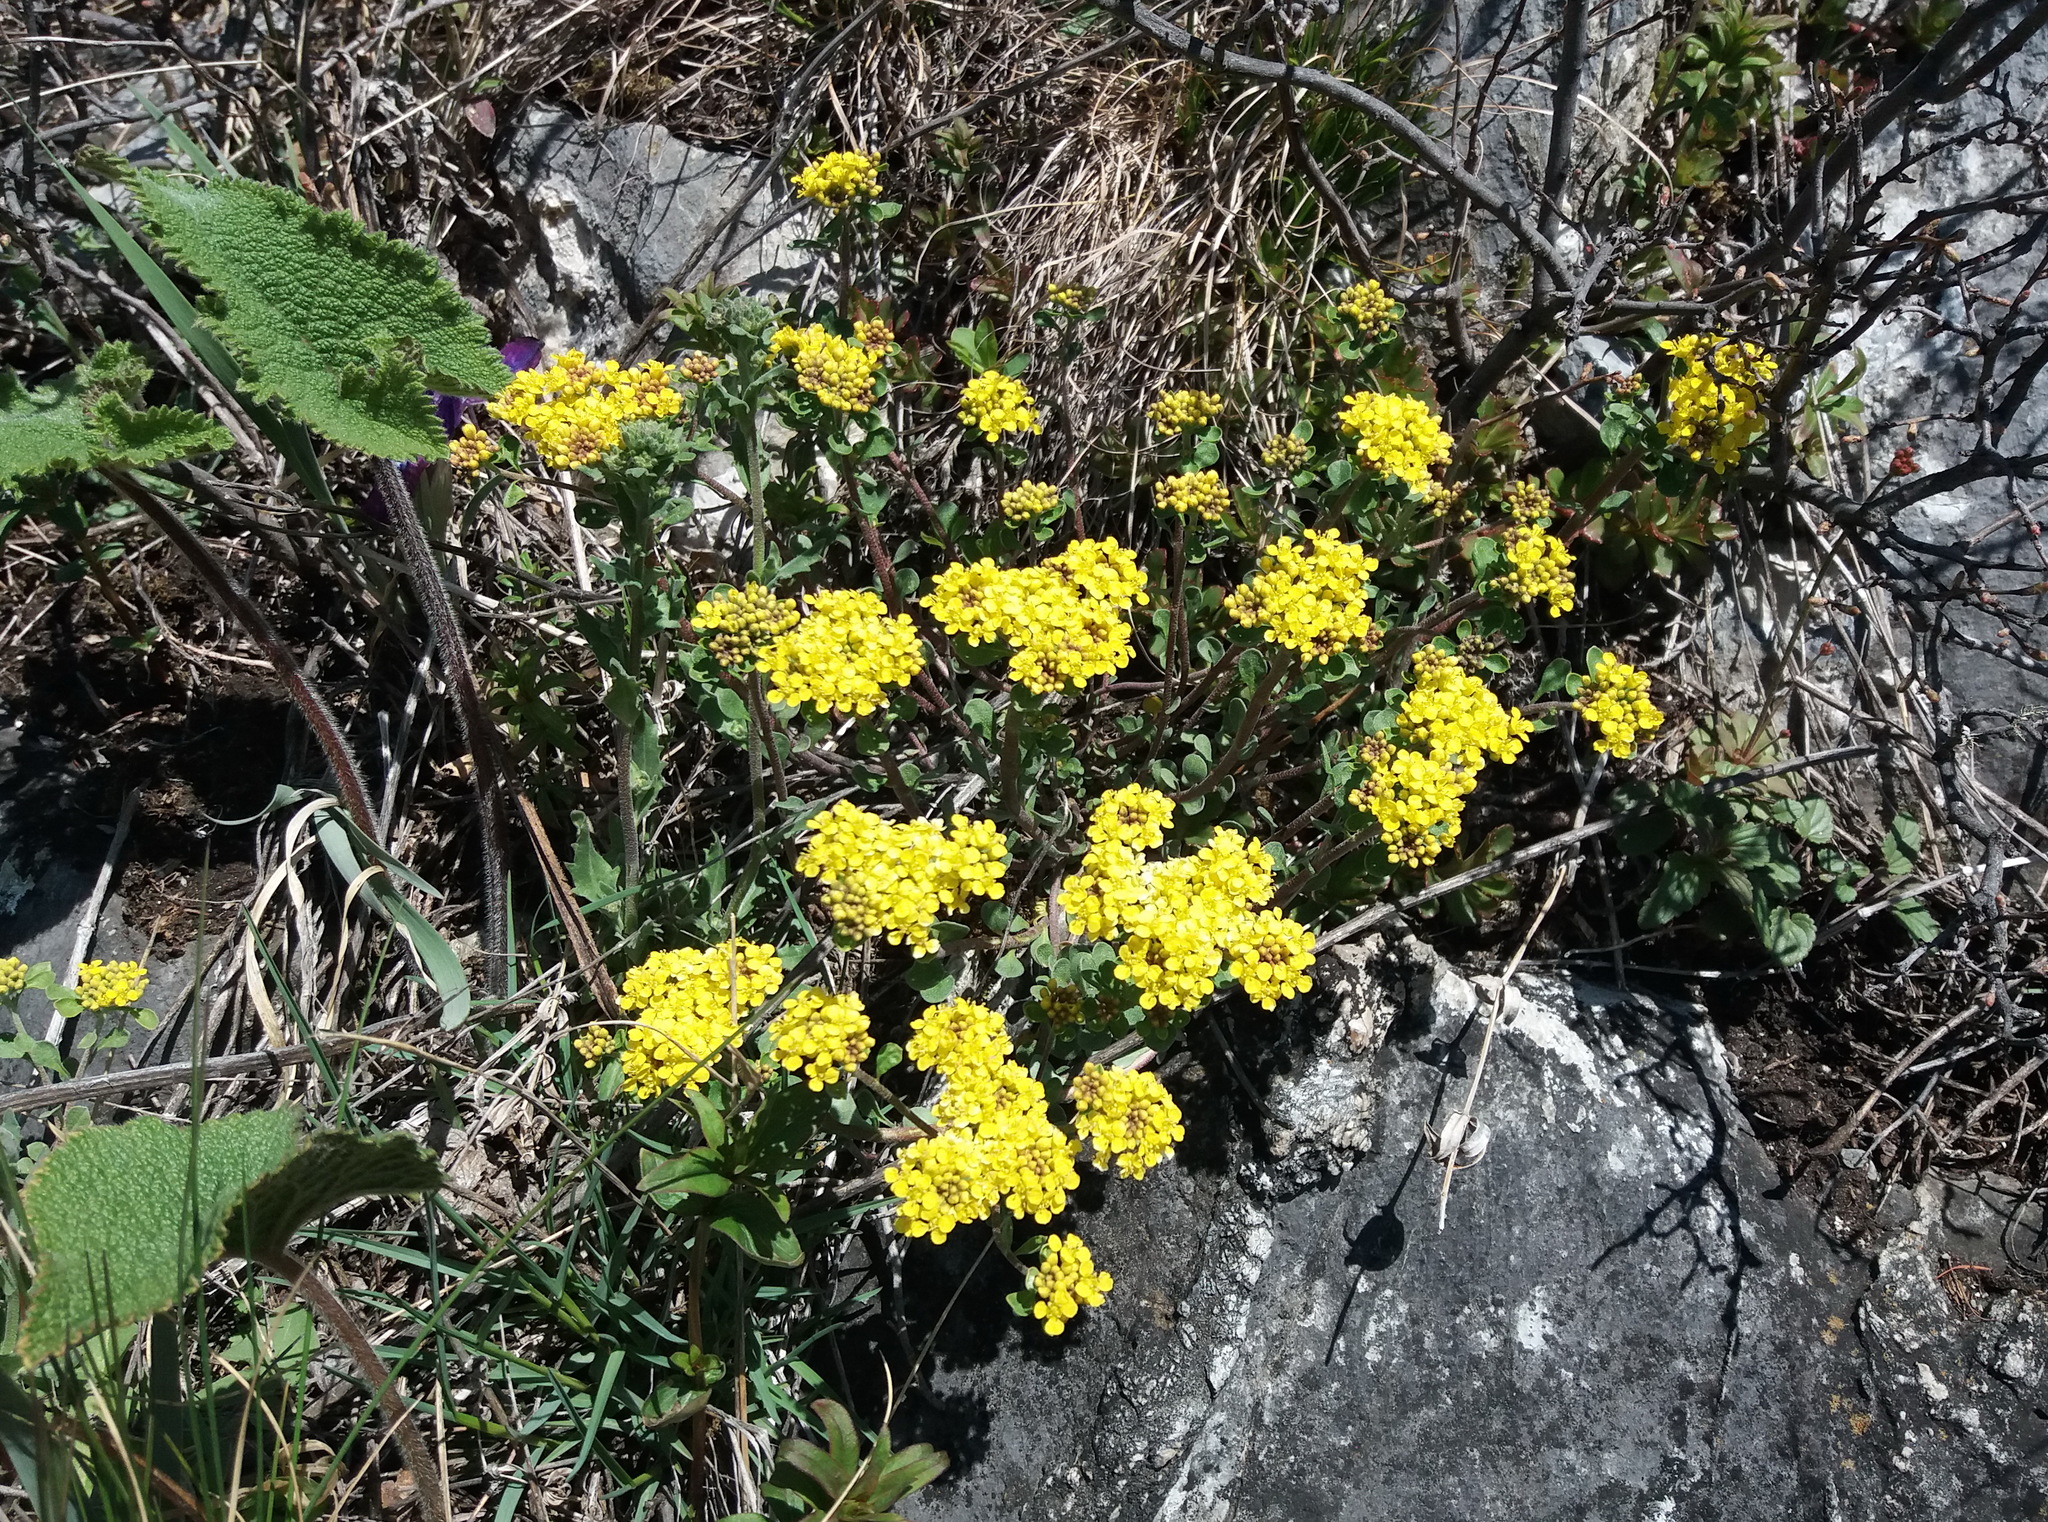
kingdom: Plantae
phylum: Tracheophyta
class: Magnoliopsida
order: Brassicales
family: Brassicaceae
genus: Odontarrhena
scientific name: Odontarrhena obovata
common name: American alyssum
